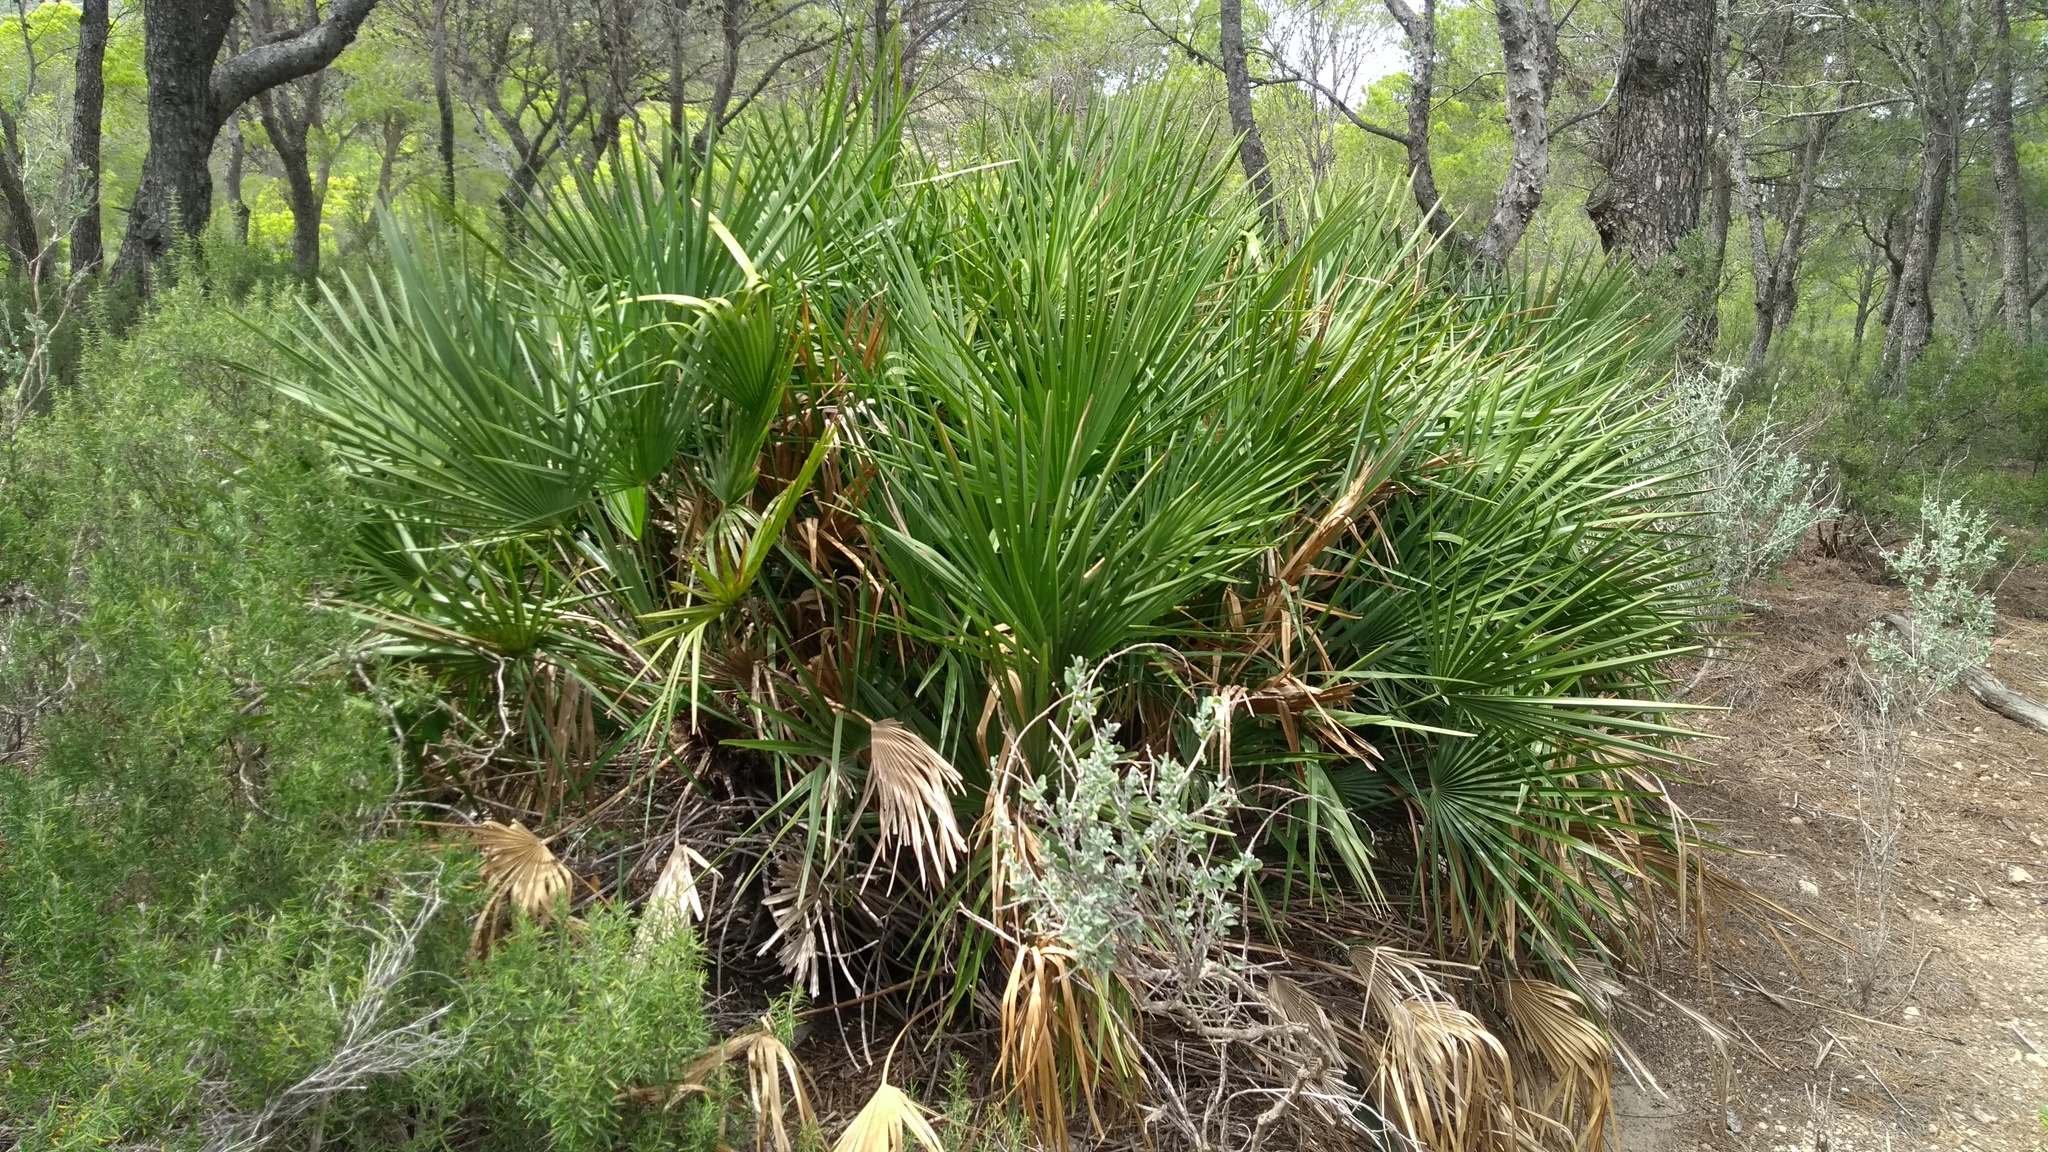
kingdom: Plantae
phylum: Tracheophyta
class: Liliopsida
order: Arecales
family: Arecaceae
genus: Chamaerops
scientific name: Chamaerops humilis
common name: Dwarf fan palm
